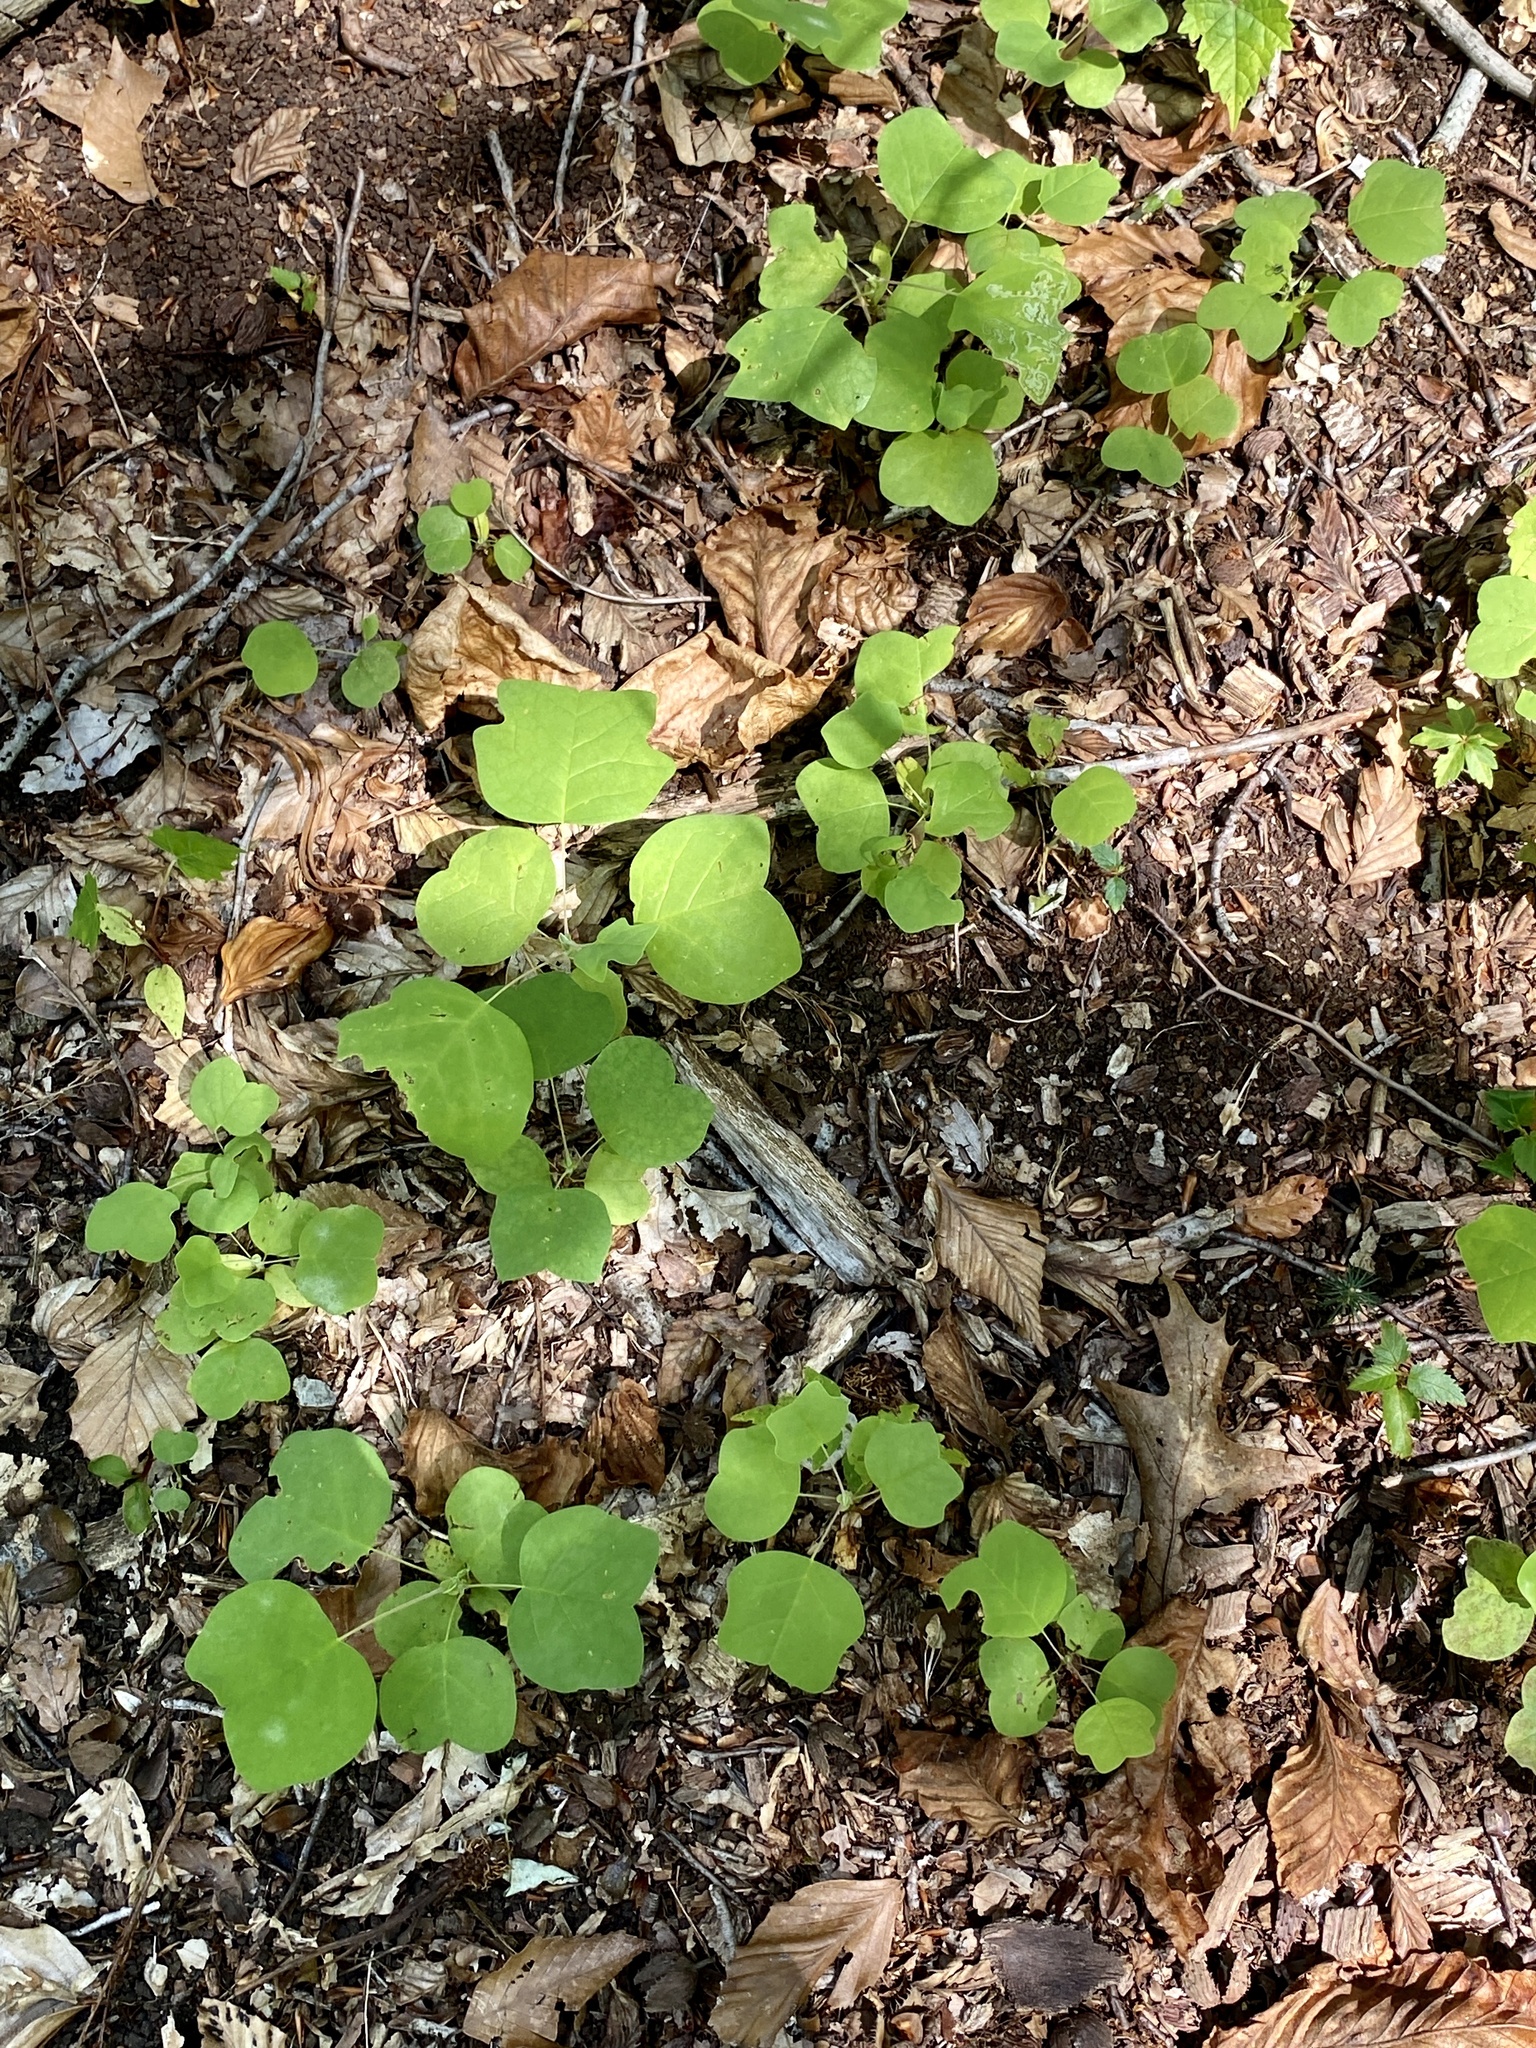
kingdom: Plantae
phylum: Tracheophyta
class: Magnoliopsida
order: Magnoliales
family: Magnoliaceae
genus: Liriodendron
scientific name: Liriodendron tulipifera
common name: Tulip tree
